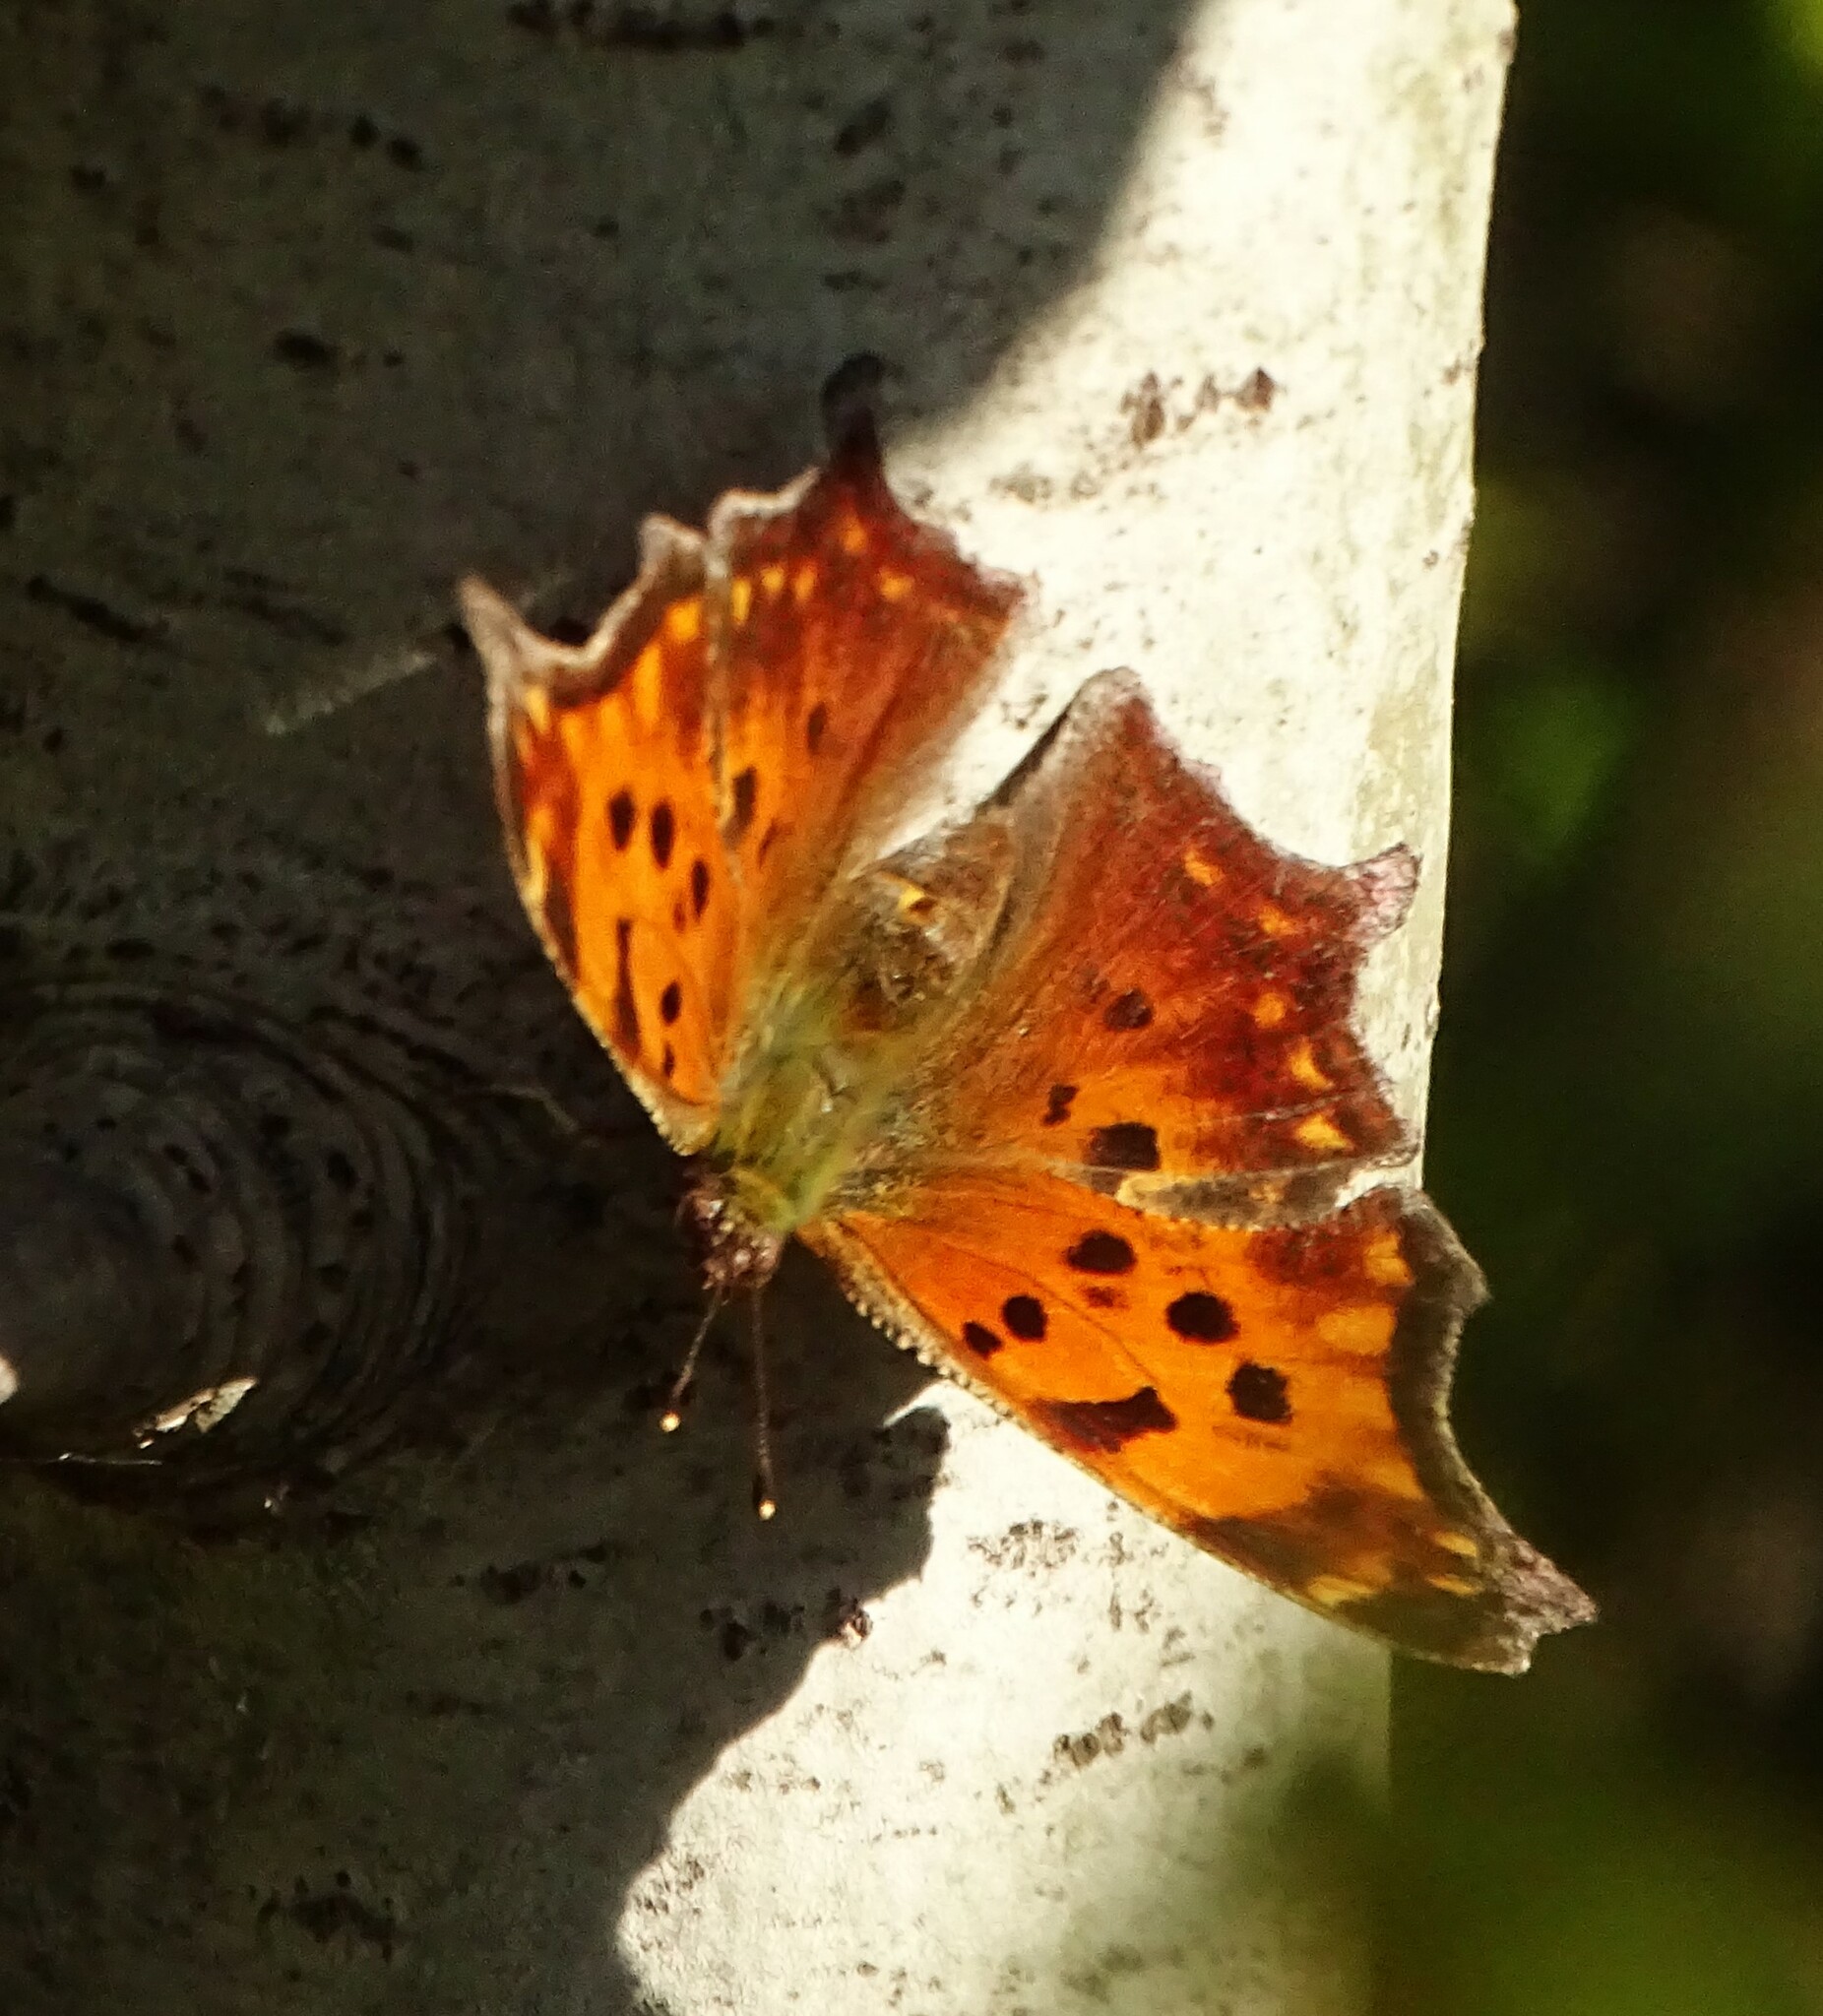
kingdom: Animalia
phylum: Arthropoda
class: Insecta
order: Lepidoptera
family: Nymphalidae
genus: Polygonia
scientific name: Polygonia comma
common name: Eastern comma
